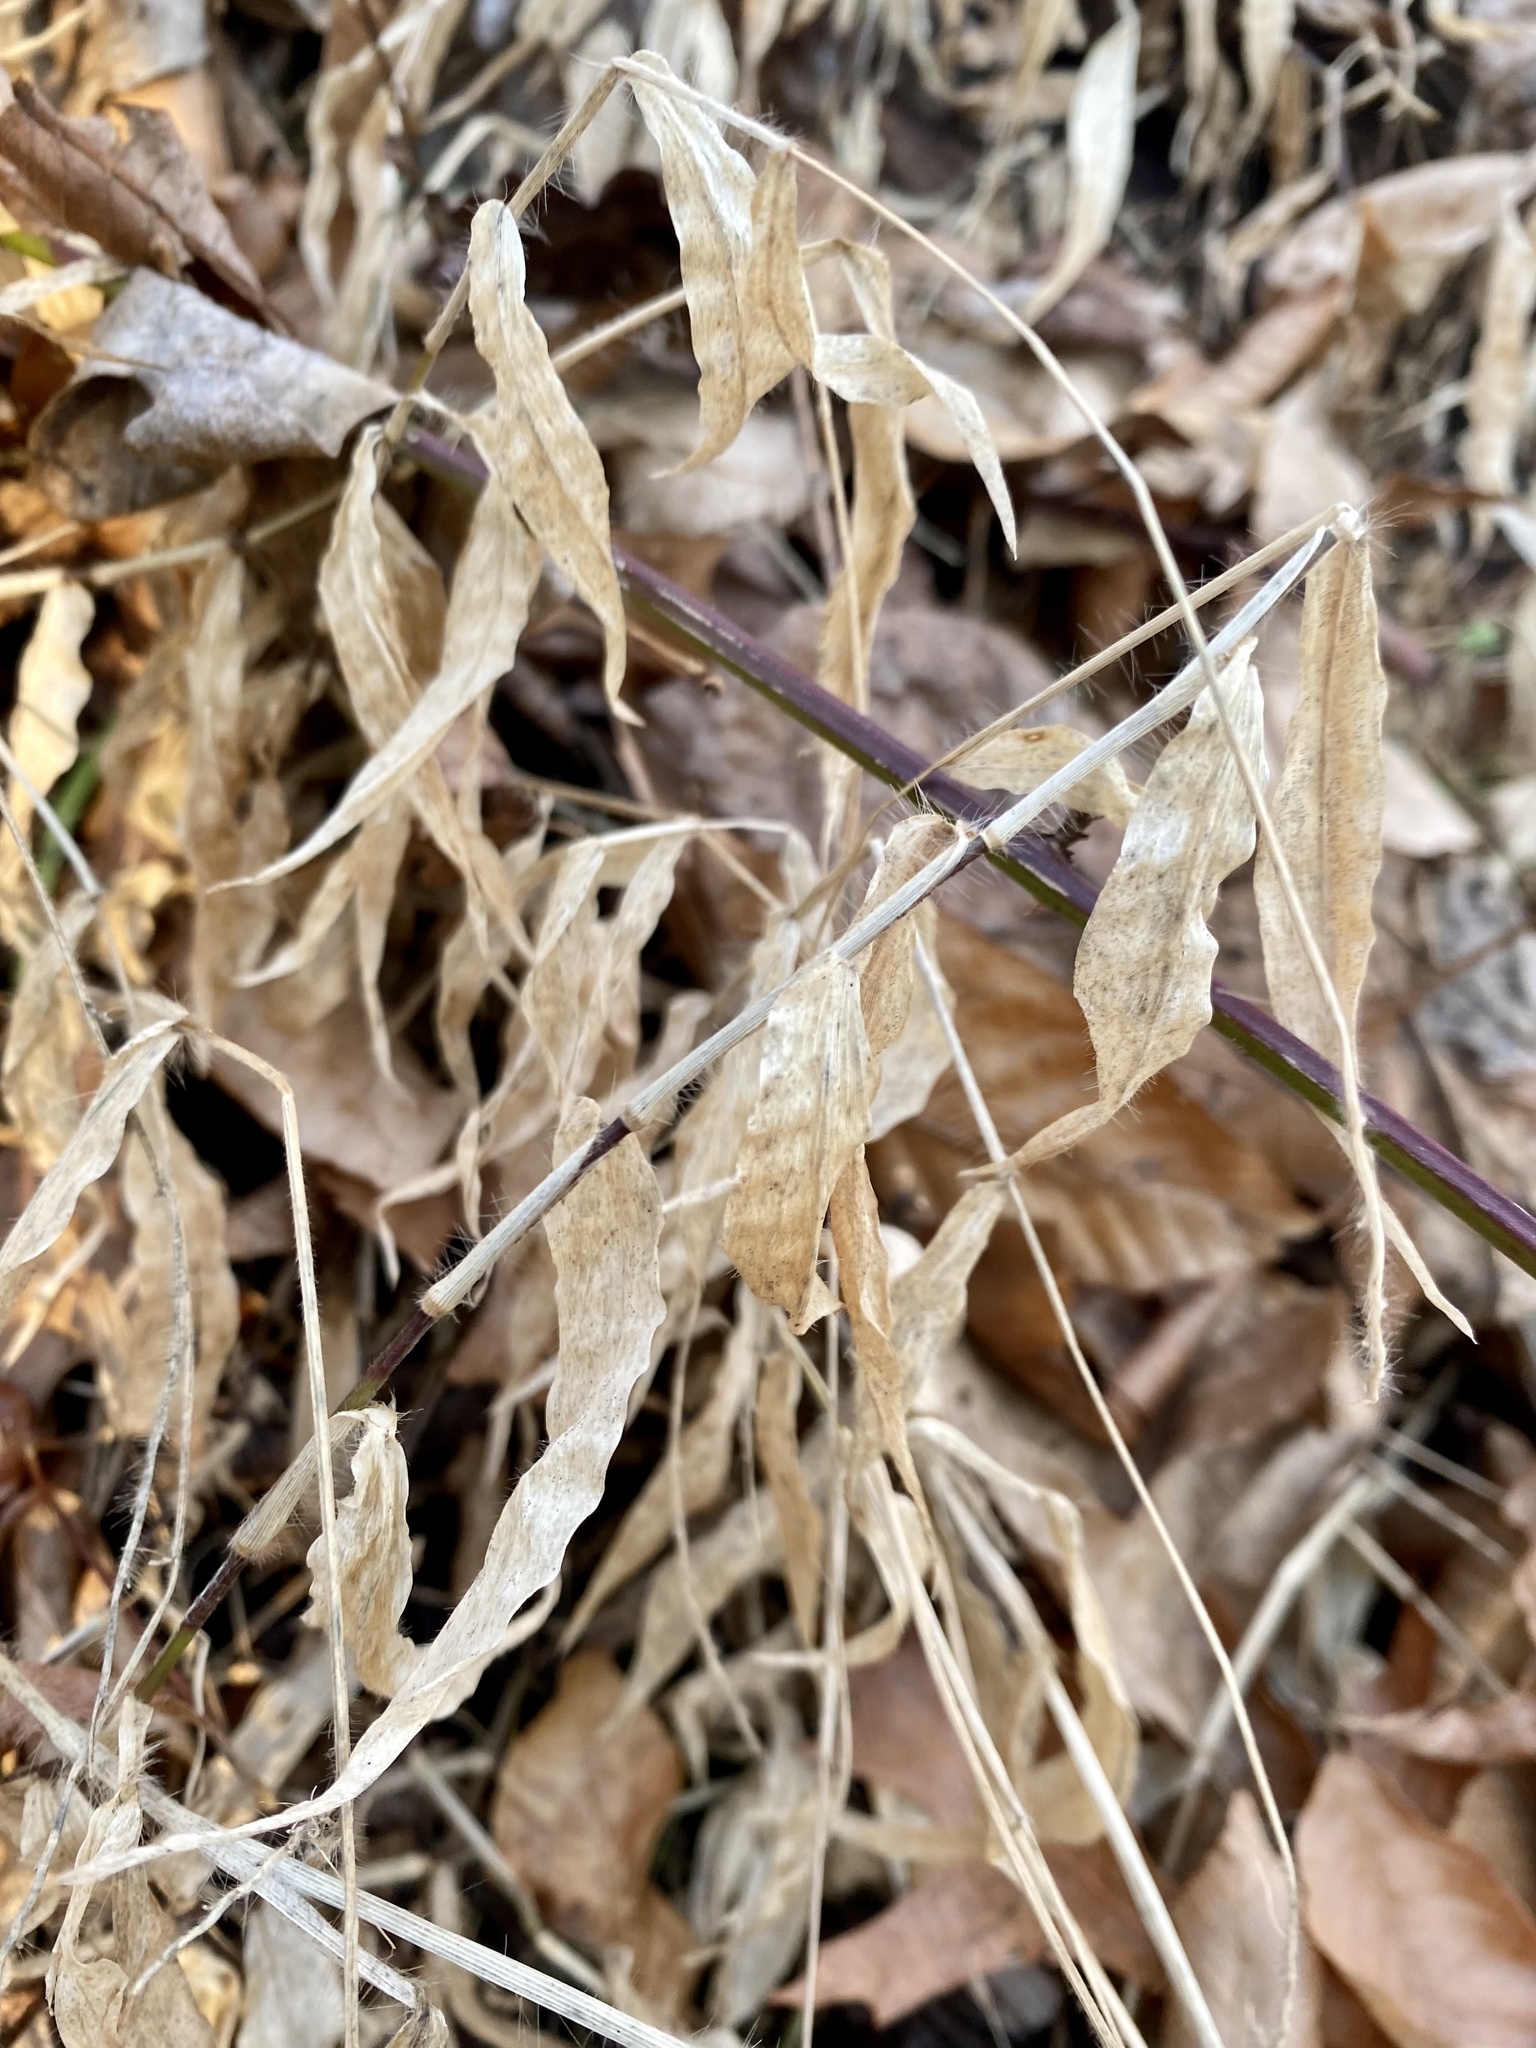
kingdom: Plantae
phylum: Tracheophyta
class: Liliopsida
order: Poales
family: Poaceae
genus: Oplismenus
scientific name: Oplismenus undulatifolius
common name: Wavyleaf basketgrass
